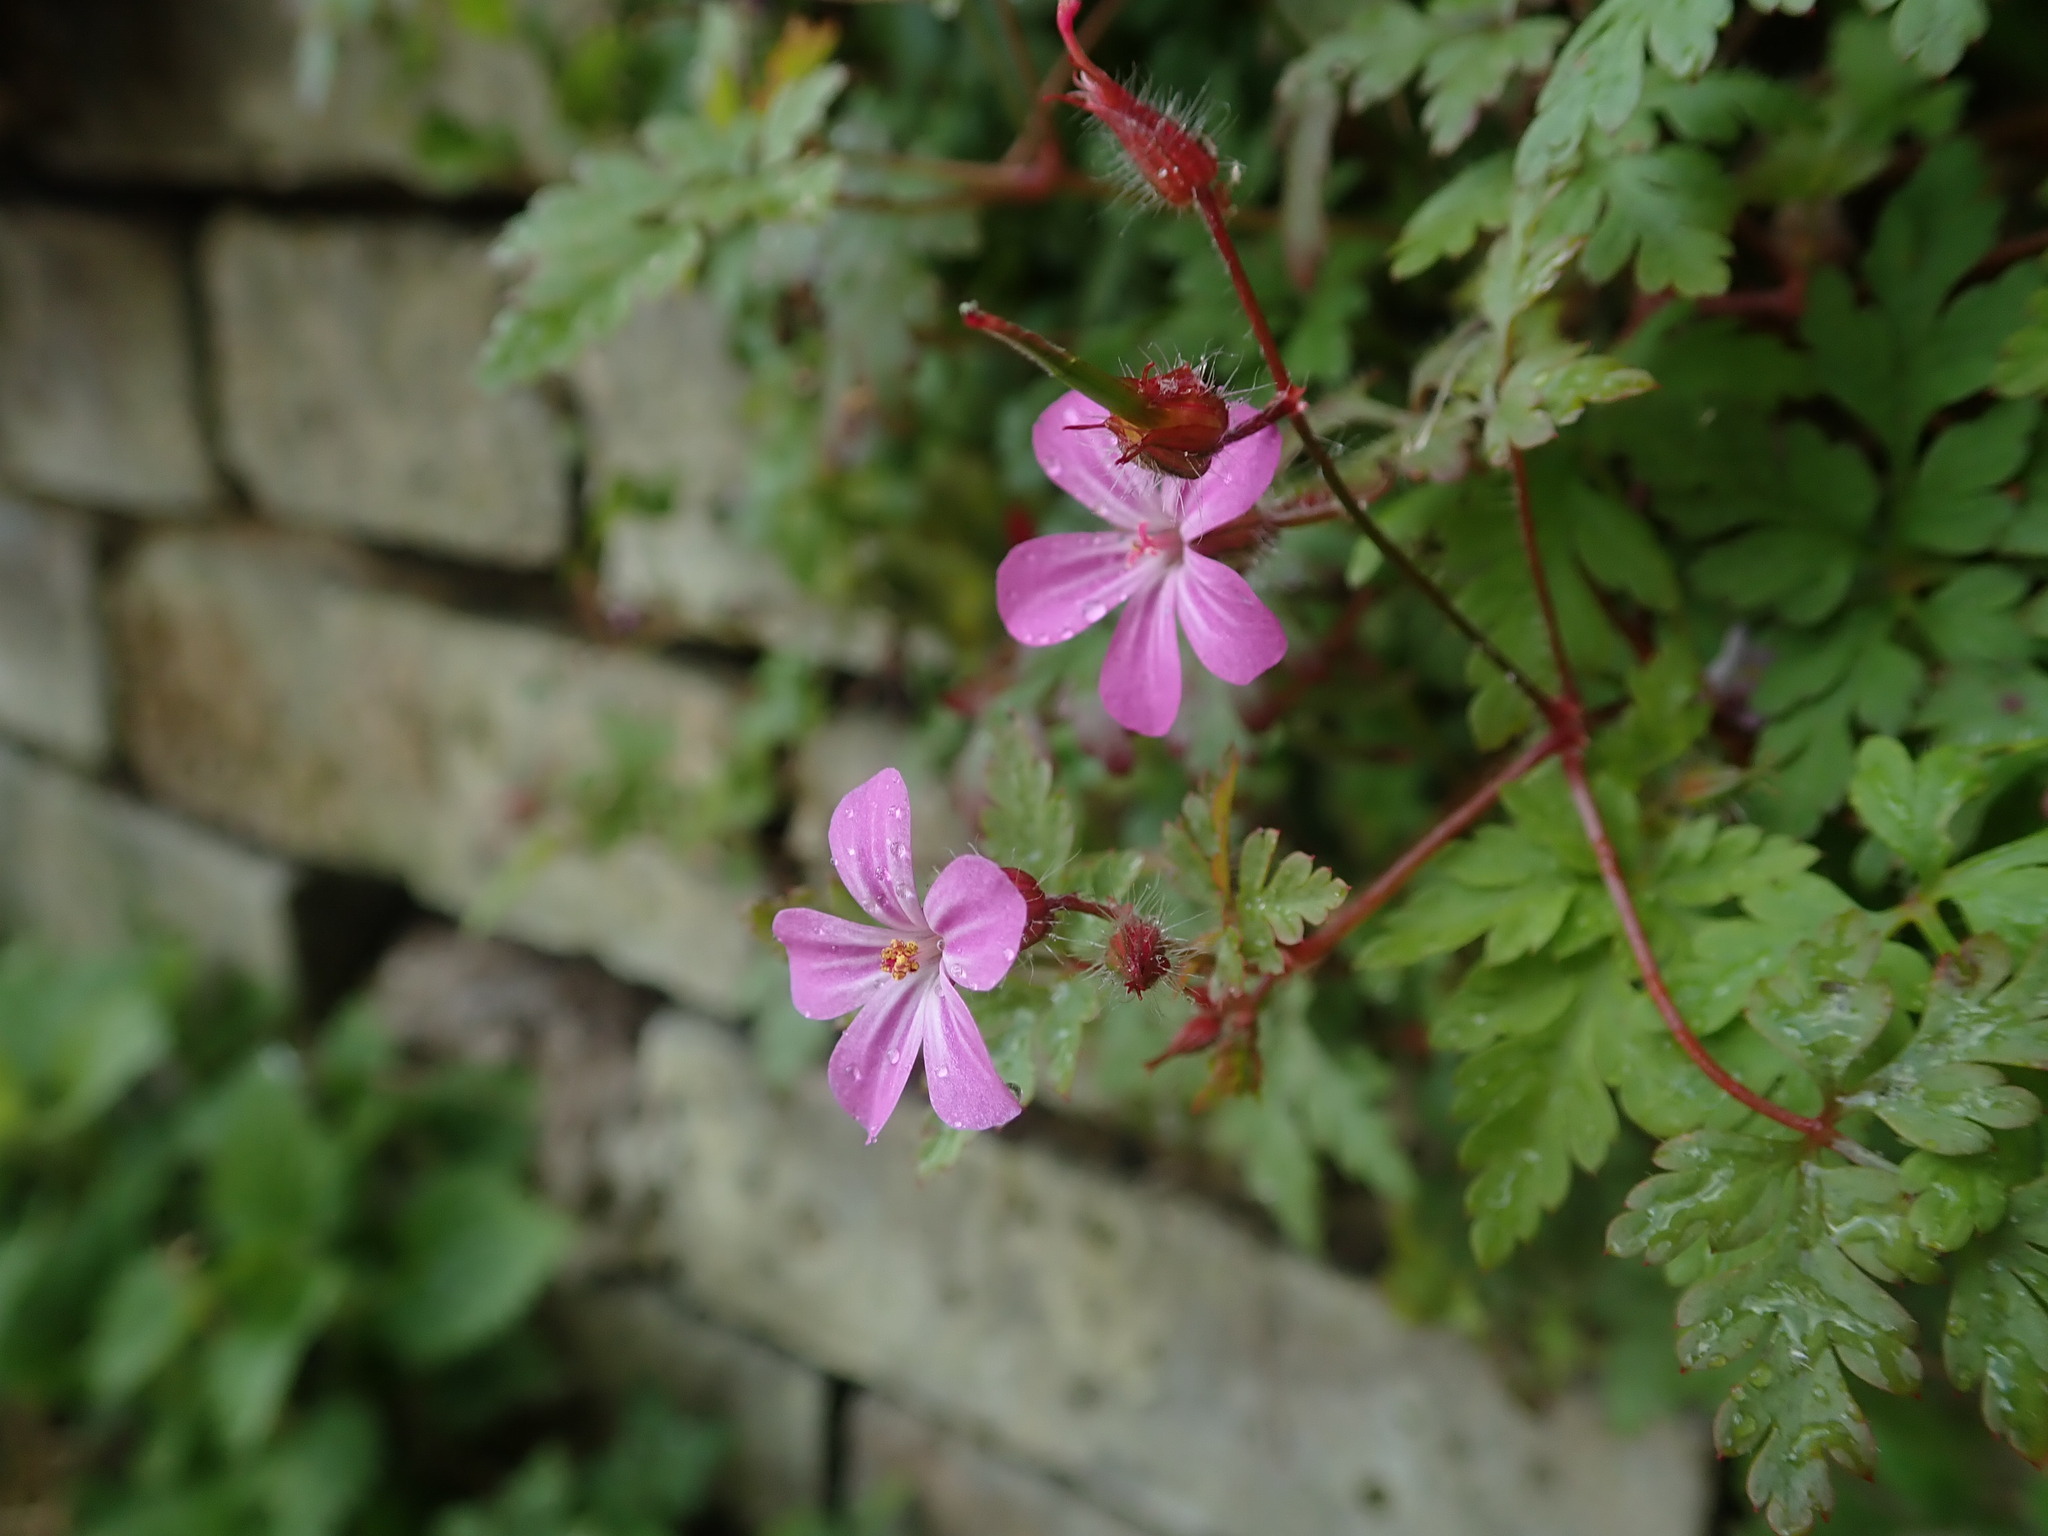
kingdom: Plantae
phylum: Tracheophyta
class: Magnoliopsida
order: Geraniales
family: Geraniaceae
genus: Geranium
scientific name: Geranium robertianum
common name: Herb-robert
